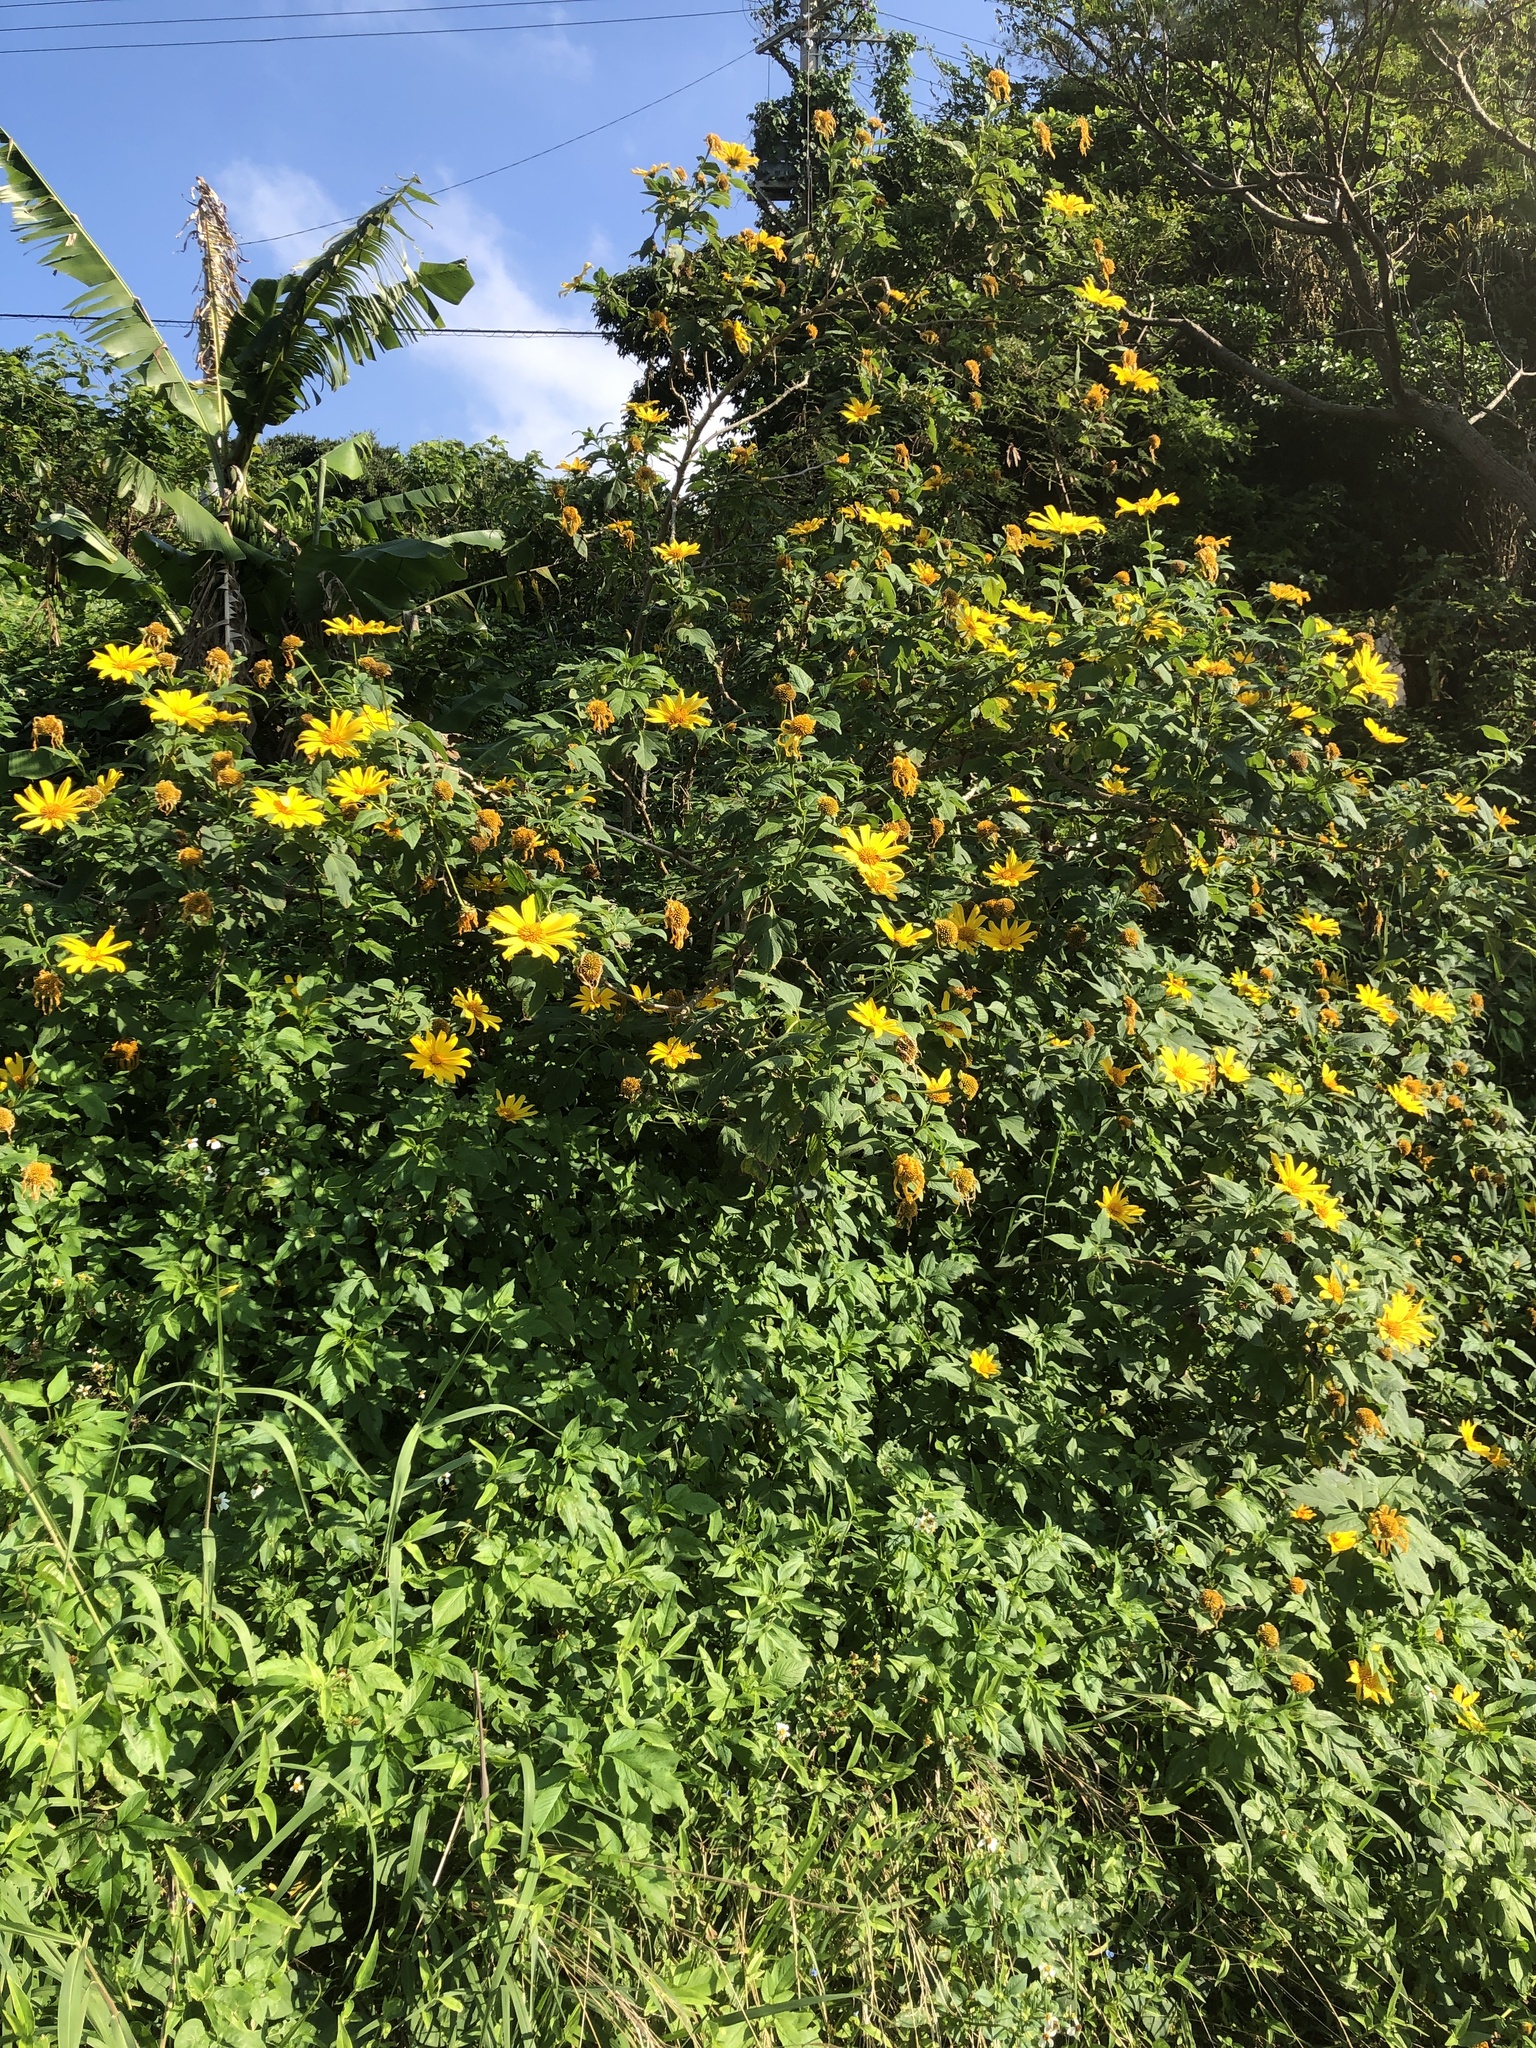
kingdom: Plantae
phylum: Tracheophyta
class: Magnoliopsida
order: Asterales
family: Asteraceae
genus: Tithonia
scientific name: Tithonia diversifolia
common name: Tree marigold
